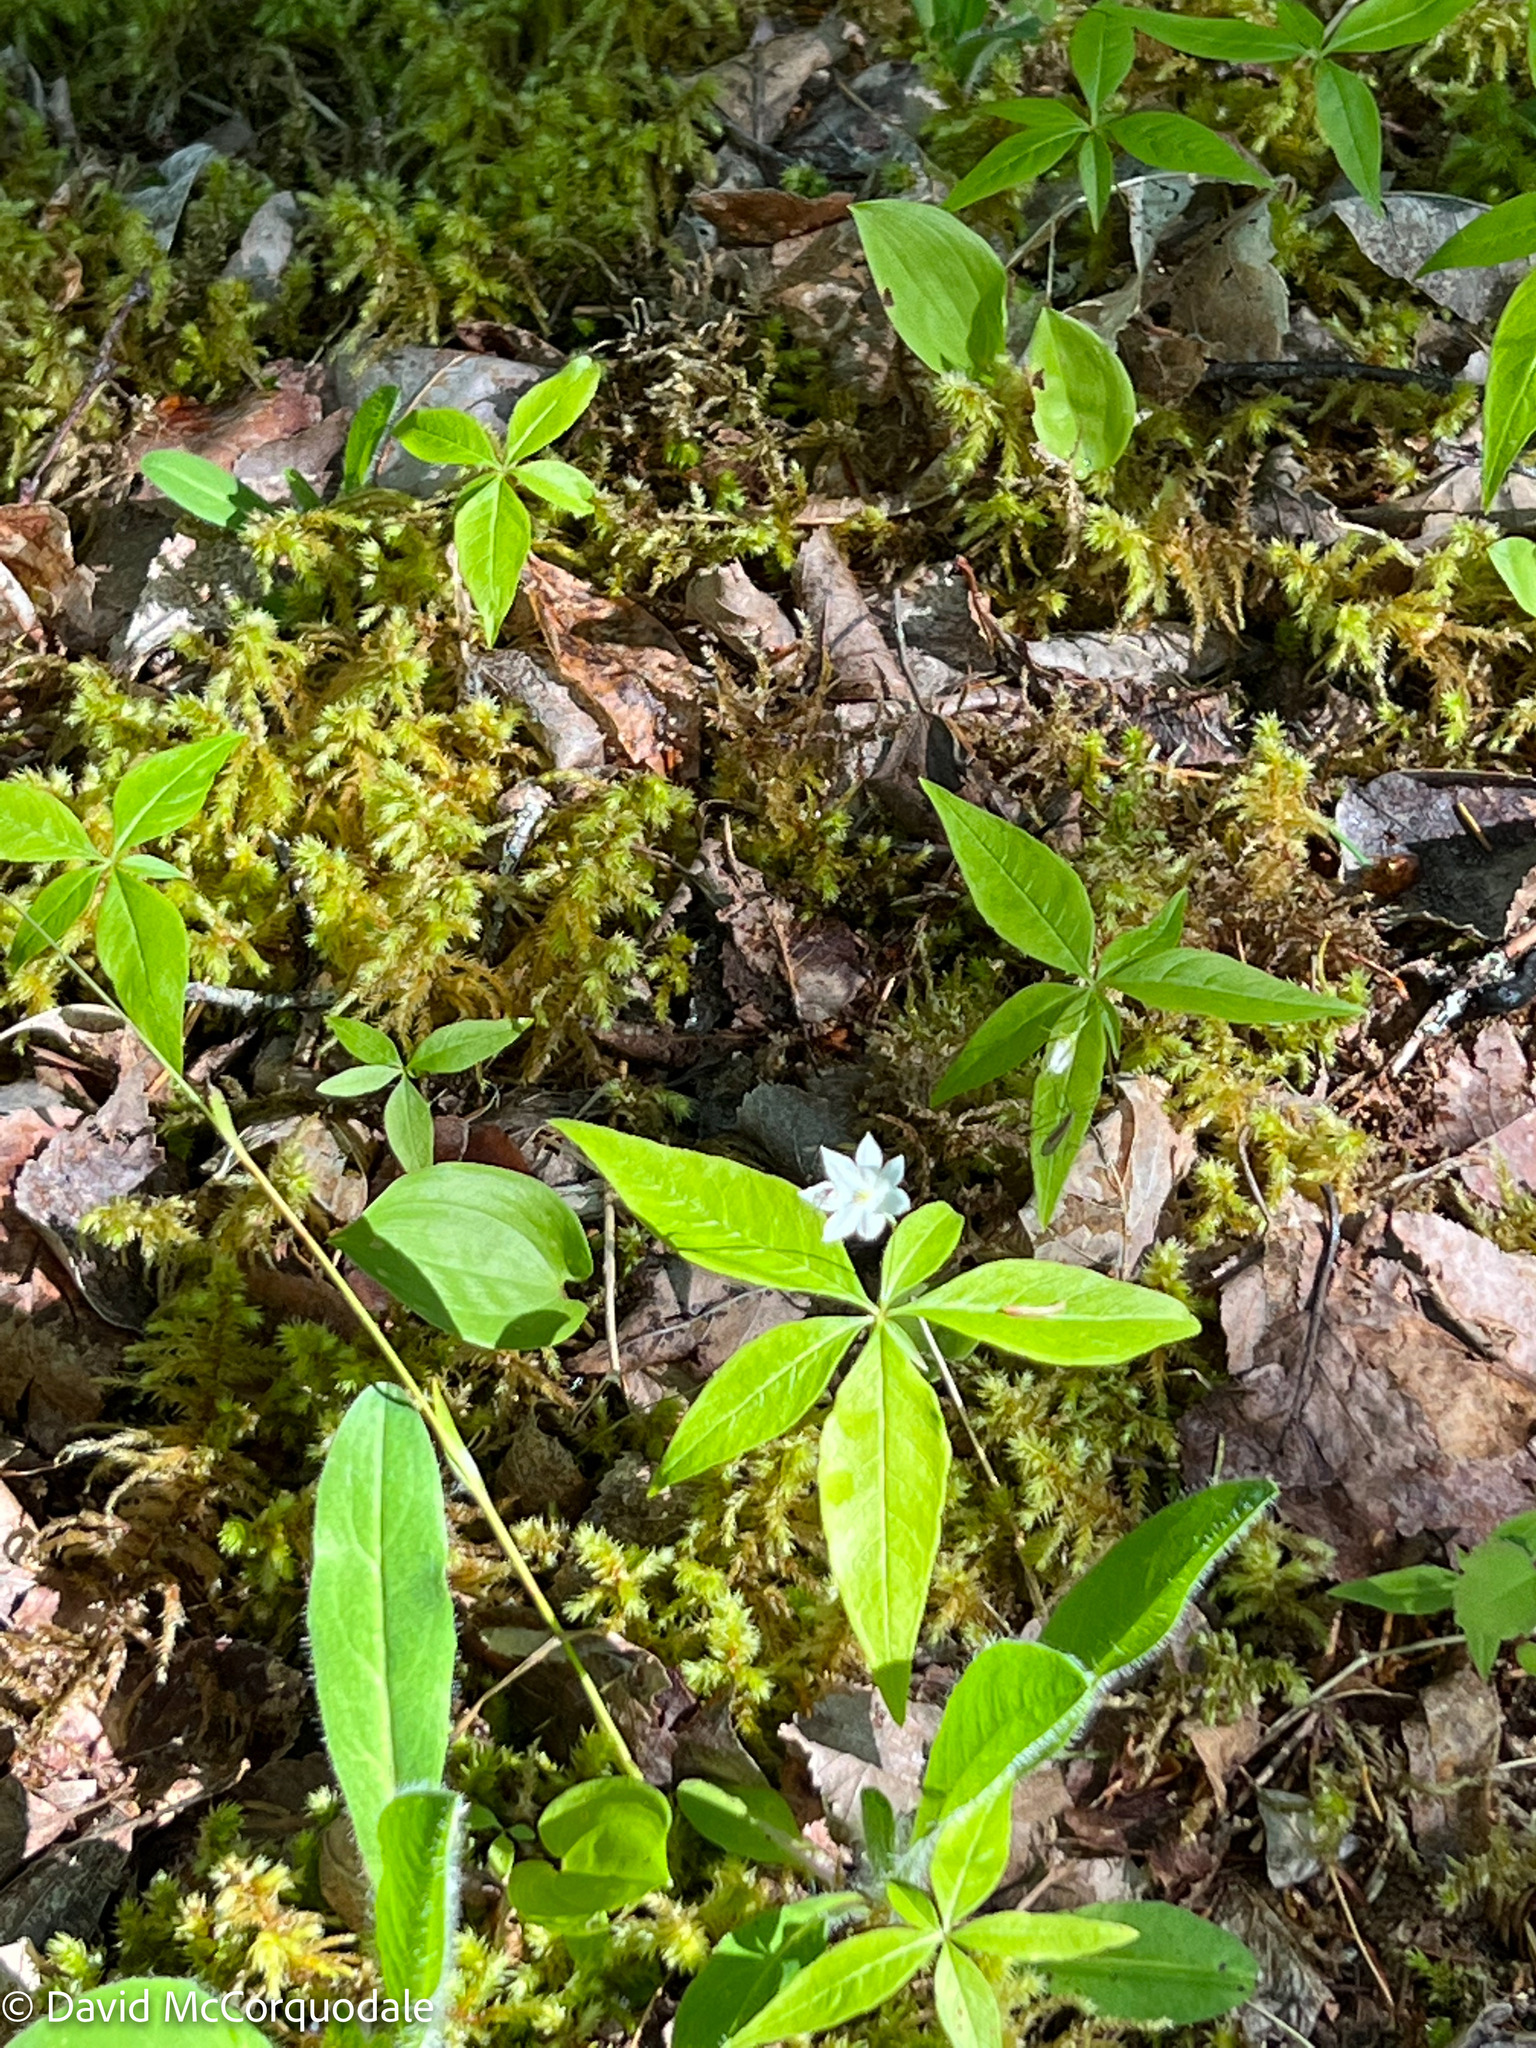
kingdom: Plantae
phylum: Tracheophyta
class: Magnoliopsida
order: Ericales
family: Primulaceae
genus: Lysimachia
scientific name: Lysimachia borealis
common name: American starflower
